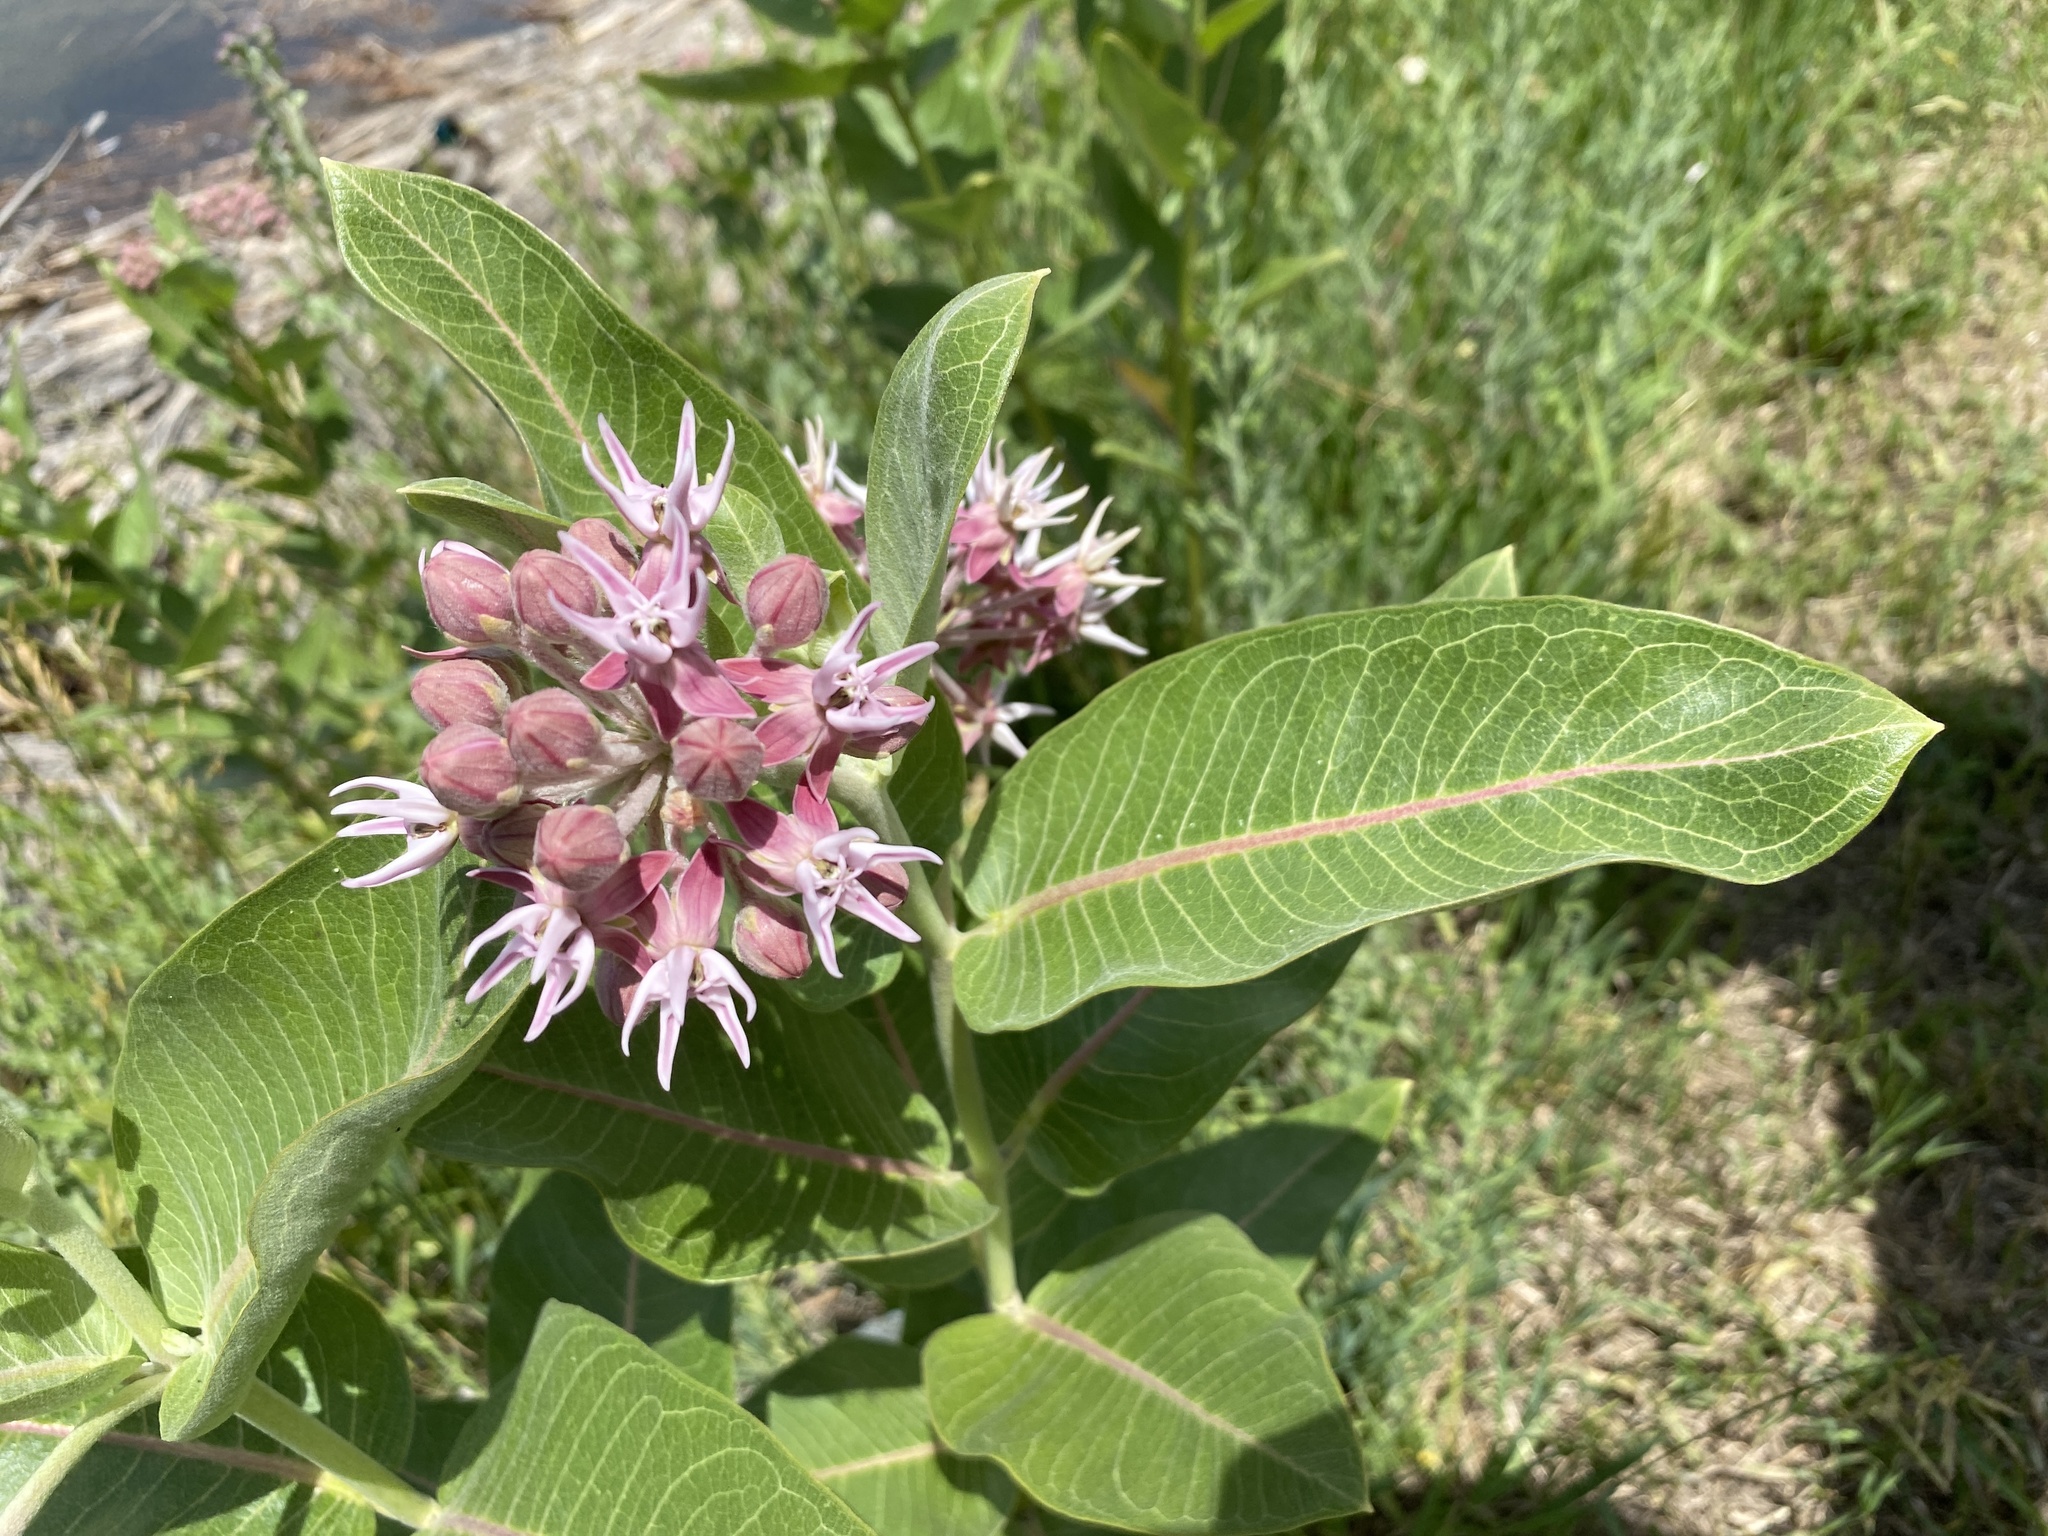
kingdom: Plantae
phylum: Tracheophyta
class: Magnoliopsida
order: Gentianales
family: Apocynaceae
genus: Asclepias
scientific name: Asclepias speciosa
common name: Showy milkweed
